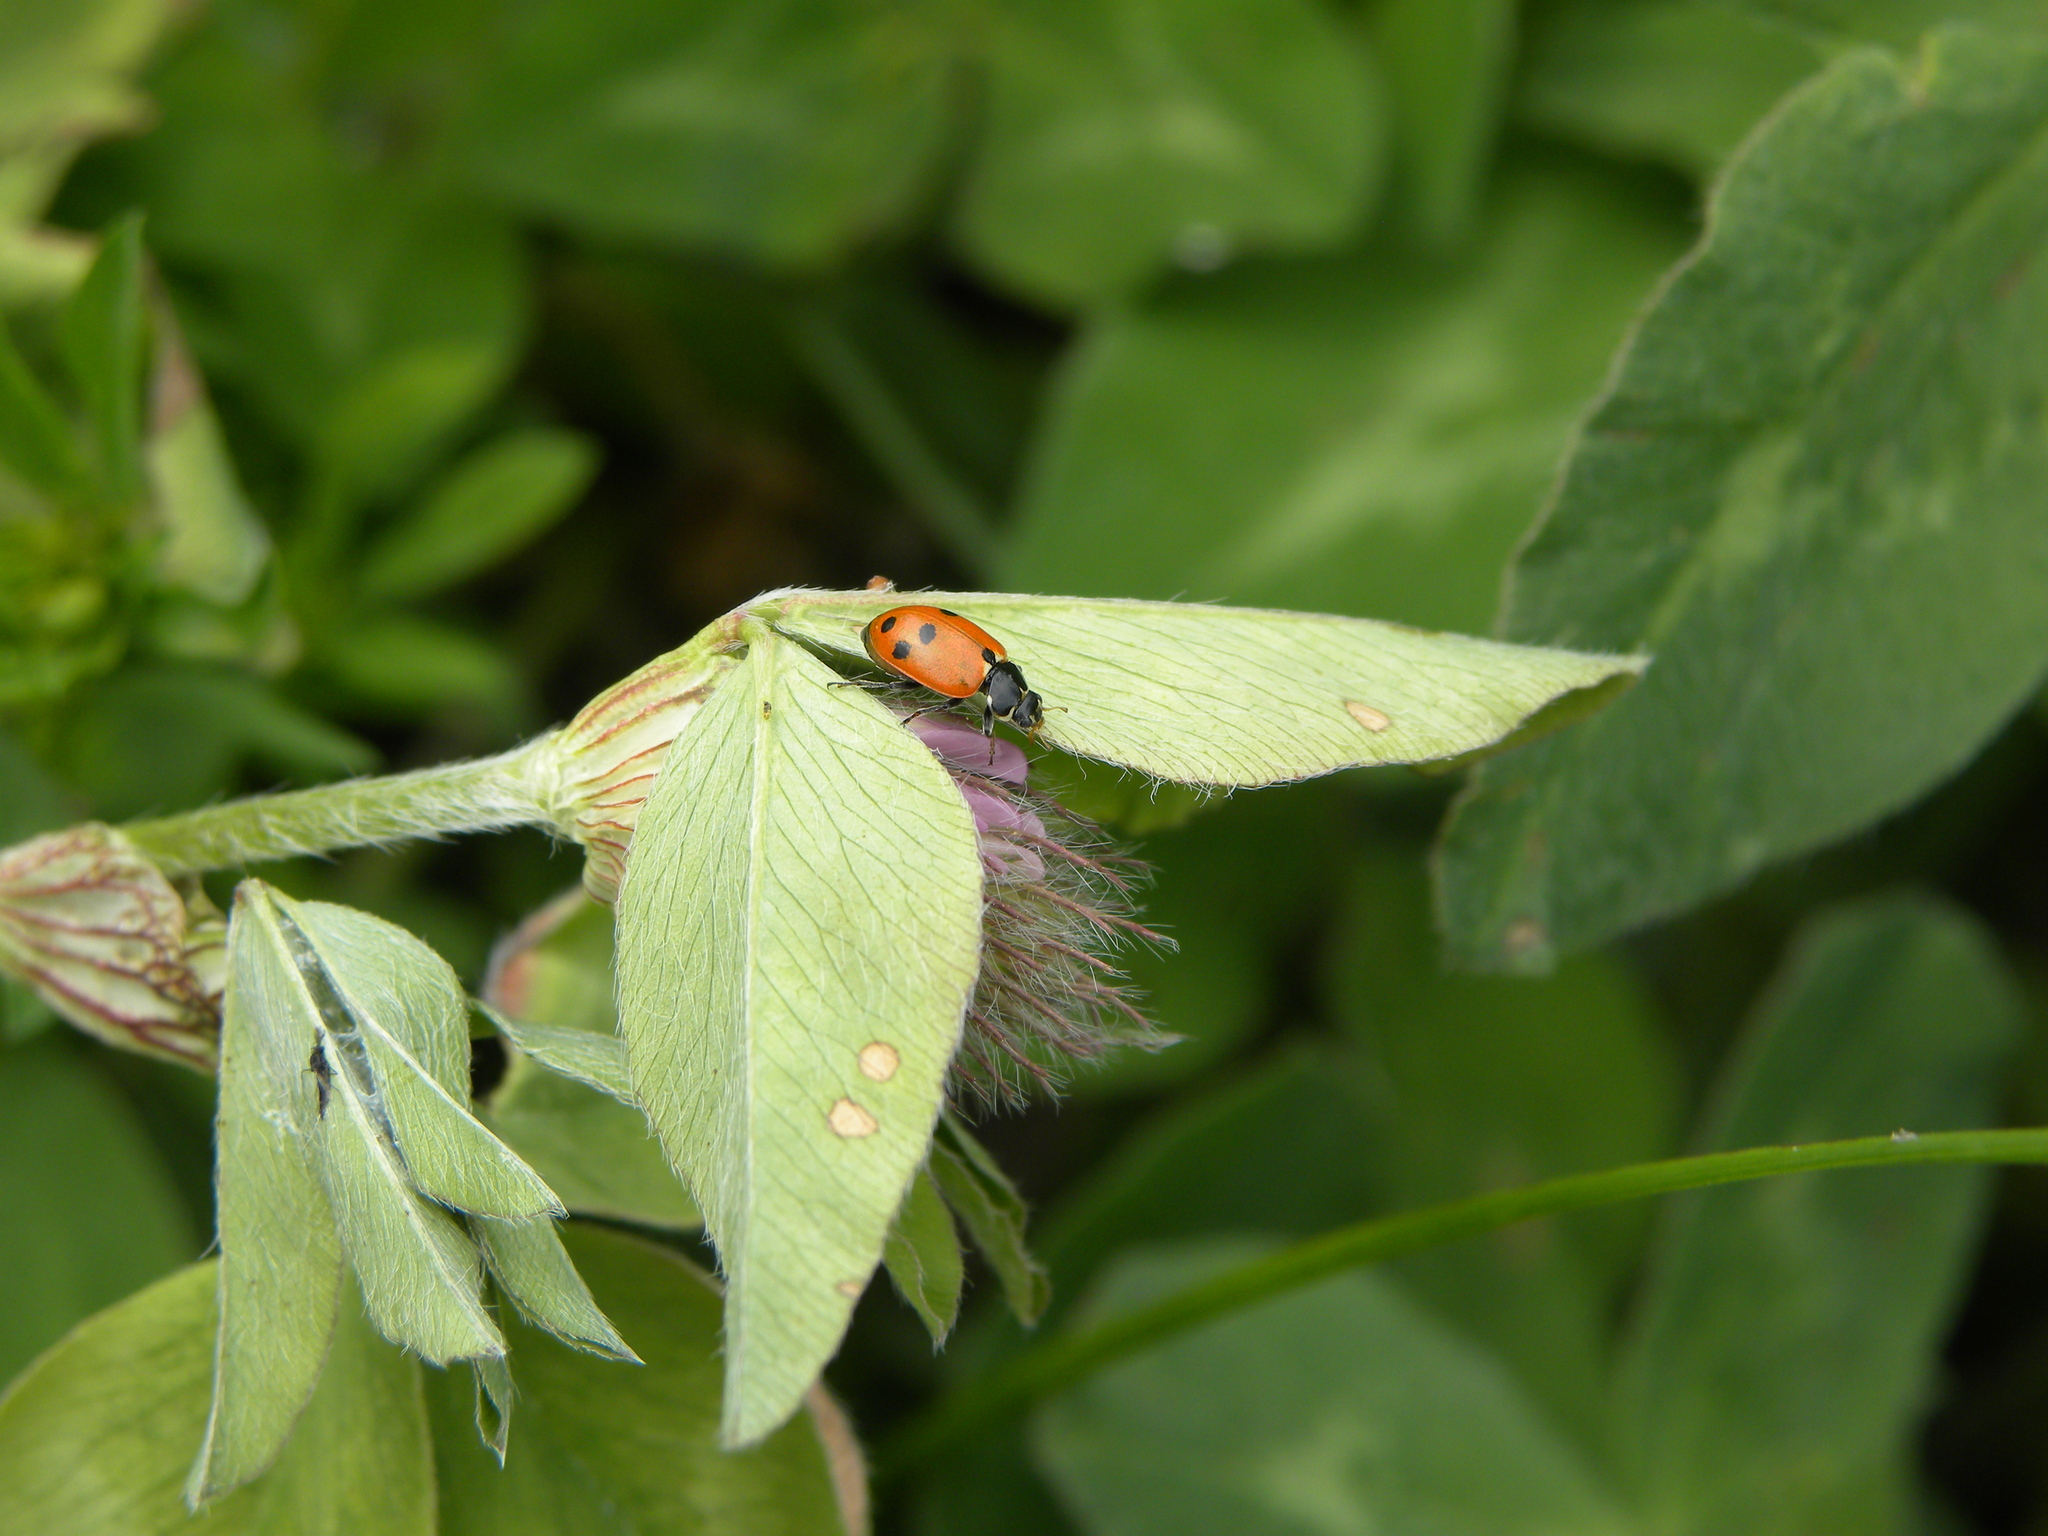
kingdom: Animalia
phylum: Arthropoda
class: Insecta
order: Coleoptera
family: Coccinellidae
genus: Hippodamia
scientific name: Hippodamia variegata
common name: Ladybird beetle
